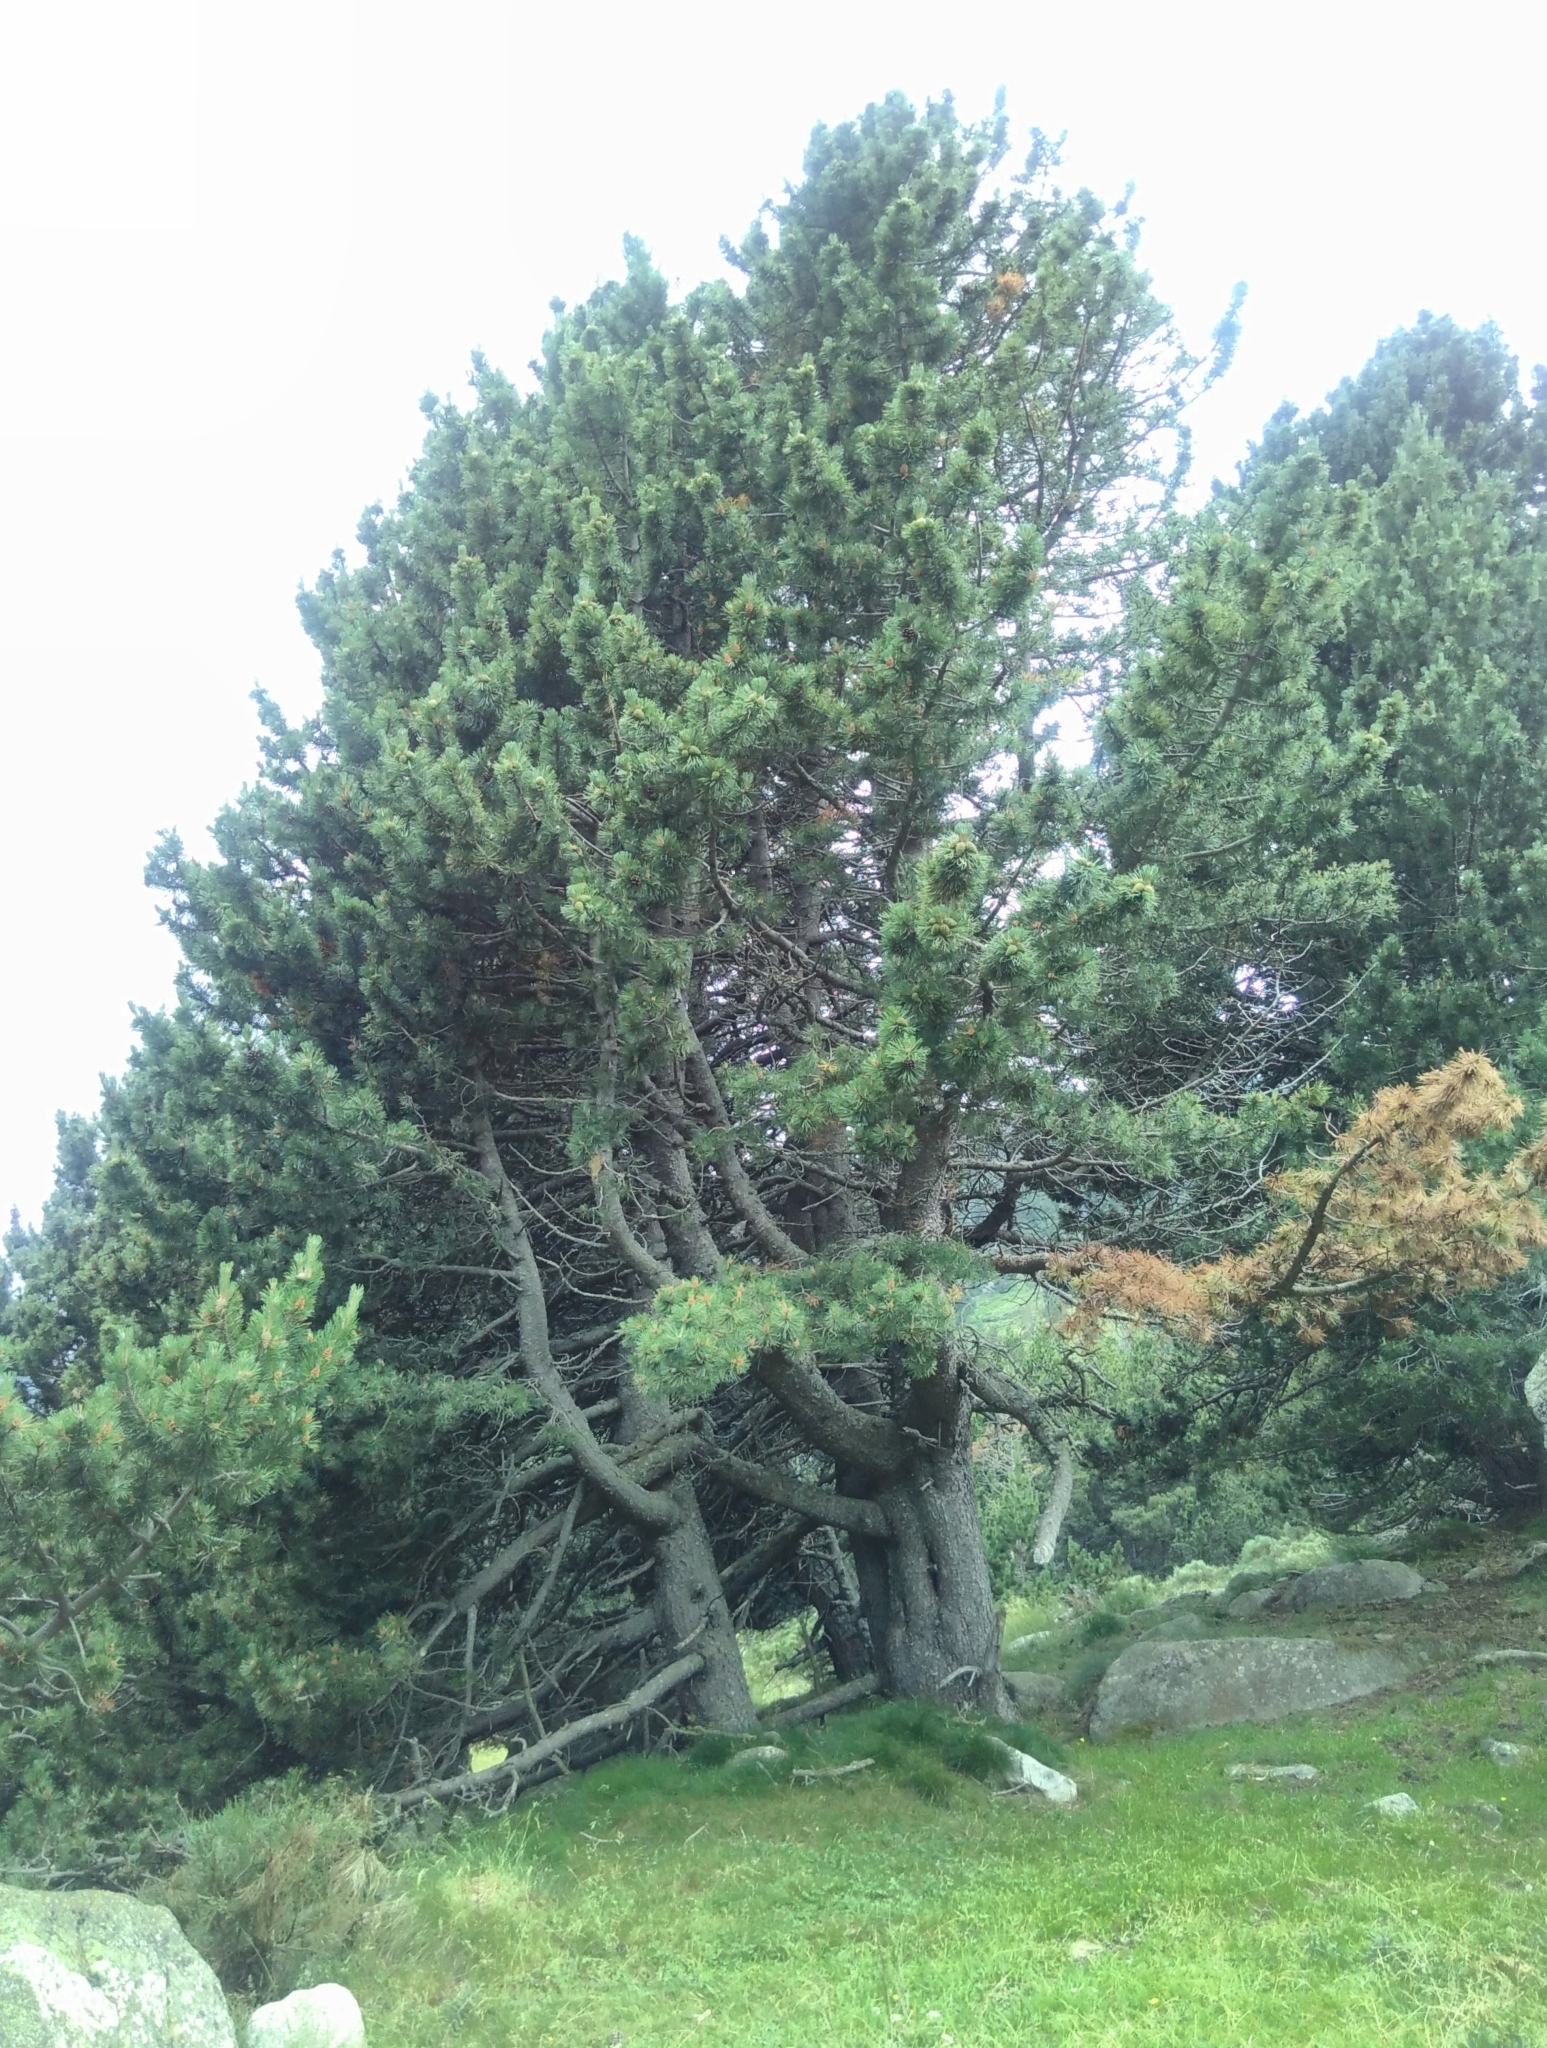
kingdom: Plantae
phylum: Tracheophyta
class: Pinopsida
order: Pinales
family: Pinaceae
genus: Pinus
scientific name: Pinus uncinata
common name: Mountain pine
